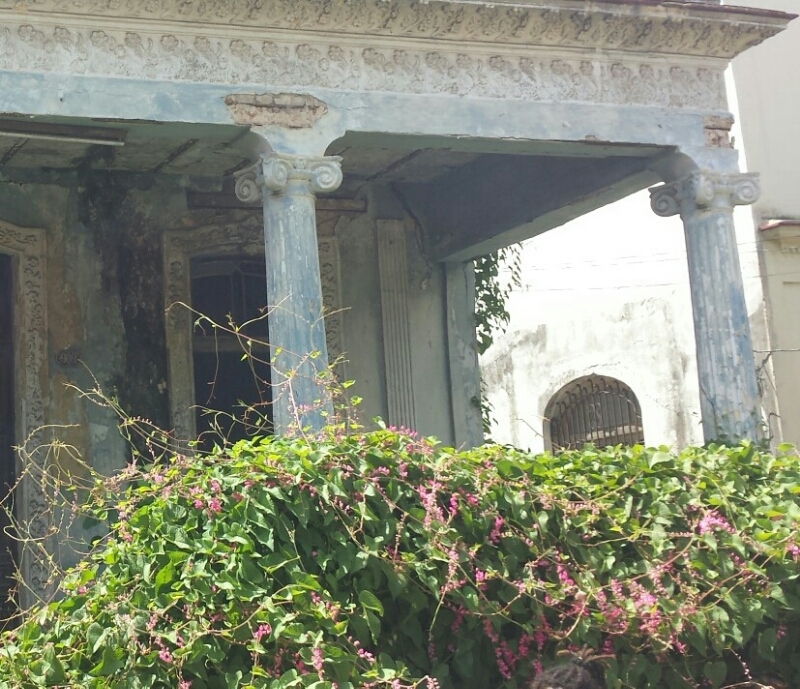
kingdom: Plantae
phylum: Tracheophyta
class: Magnoliopsida
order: Caryophyllales
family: Polygonaceae
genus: Antigonon
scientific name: Antigonon leptopus
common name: Coral vine
